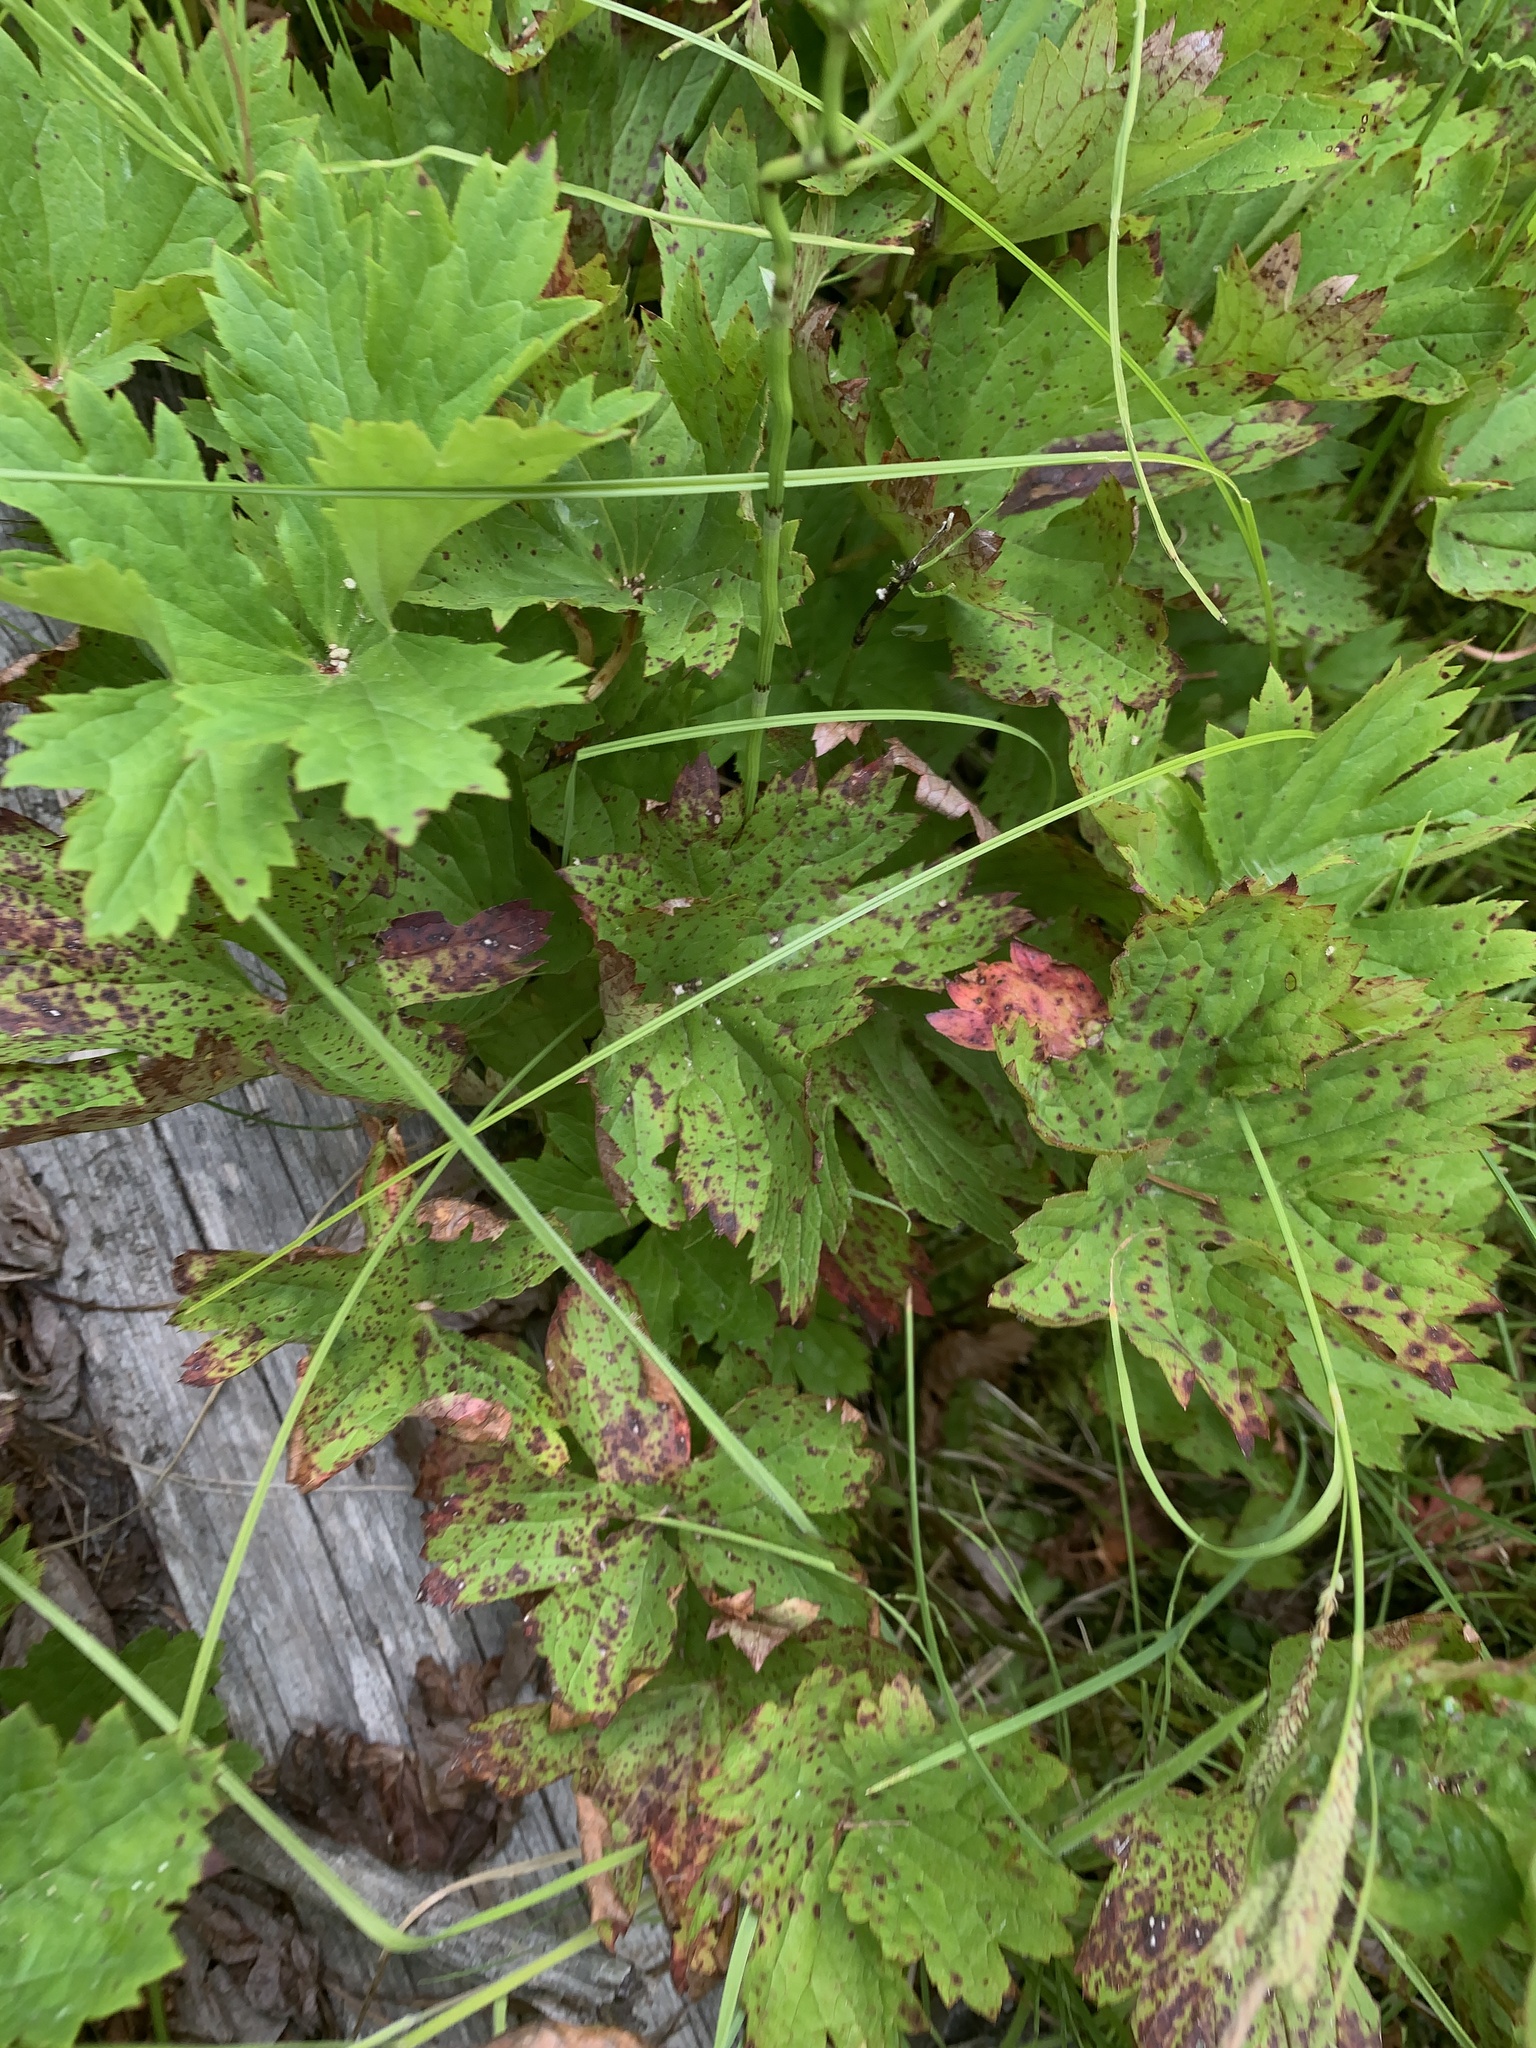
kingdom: Plantae
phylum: Tracheophyta
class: Magnoliopsida
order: Saxifragales
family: Saxifragaceae
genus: Boykinia
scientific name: Boykinia major
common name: Large boykinia
